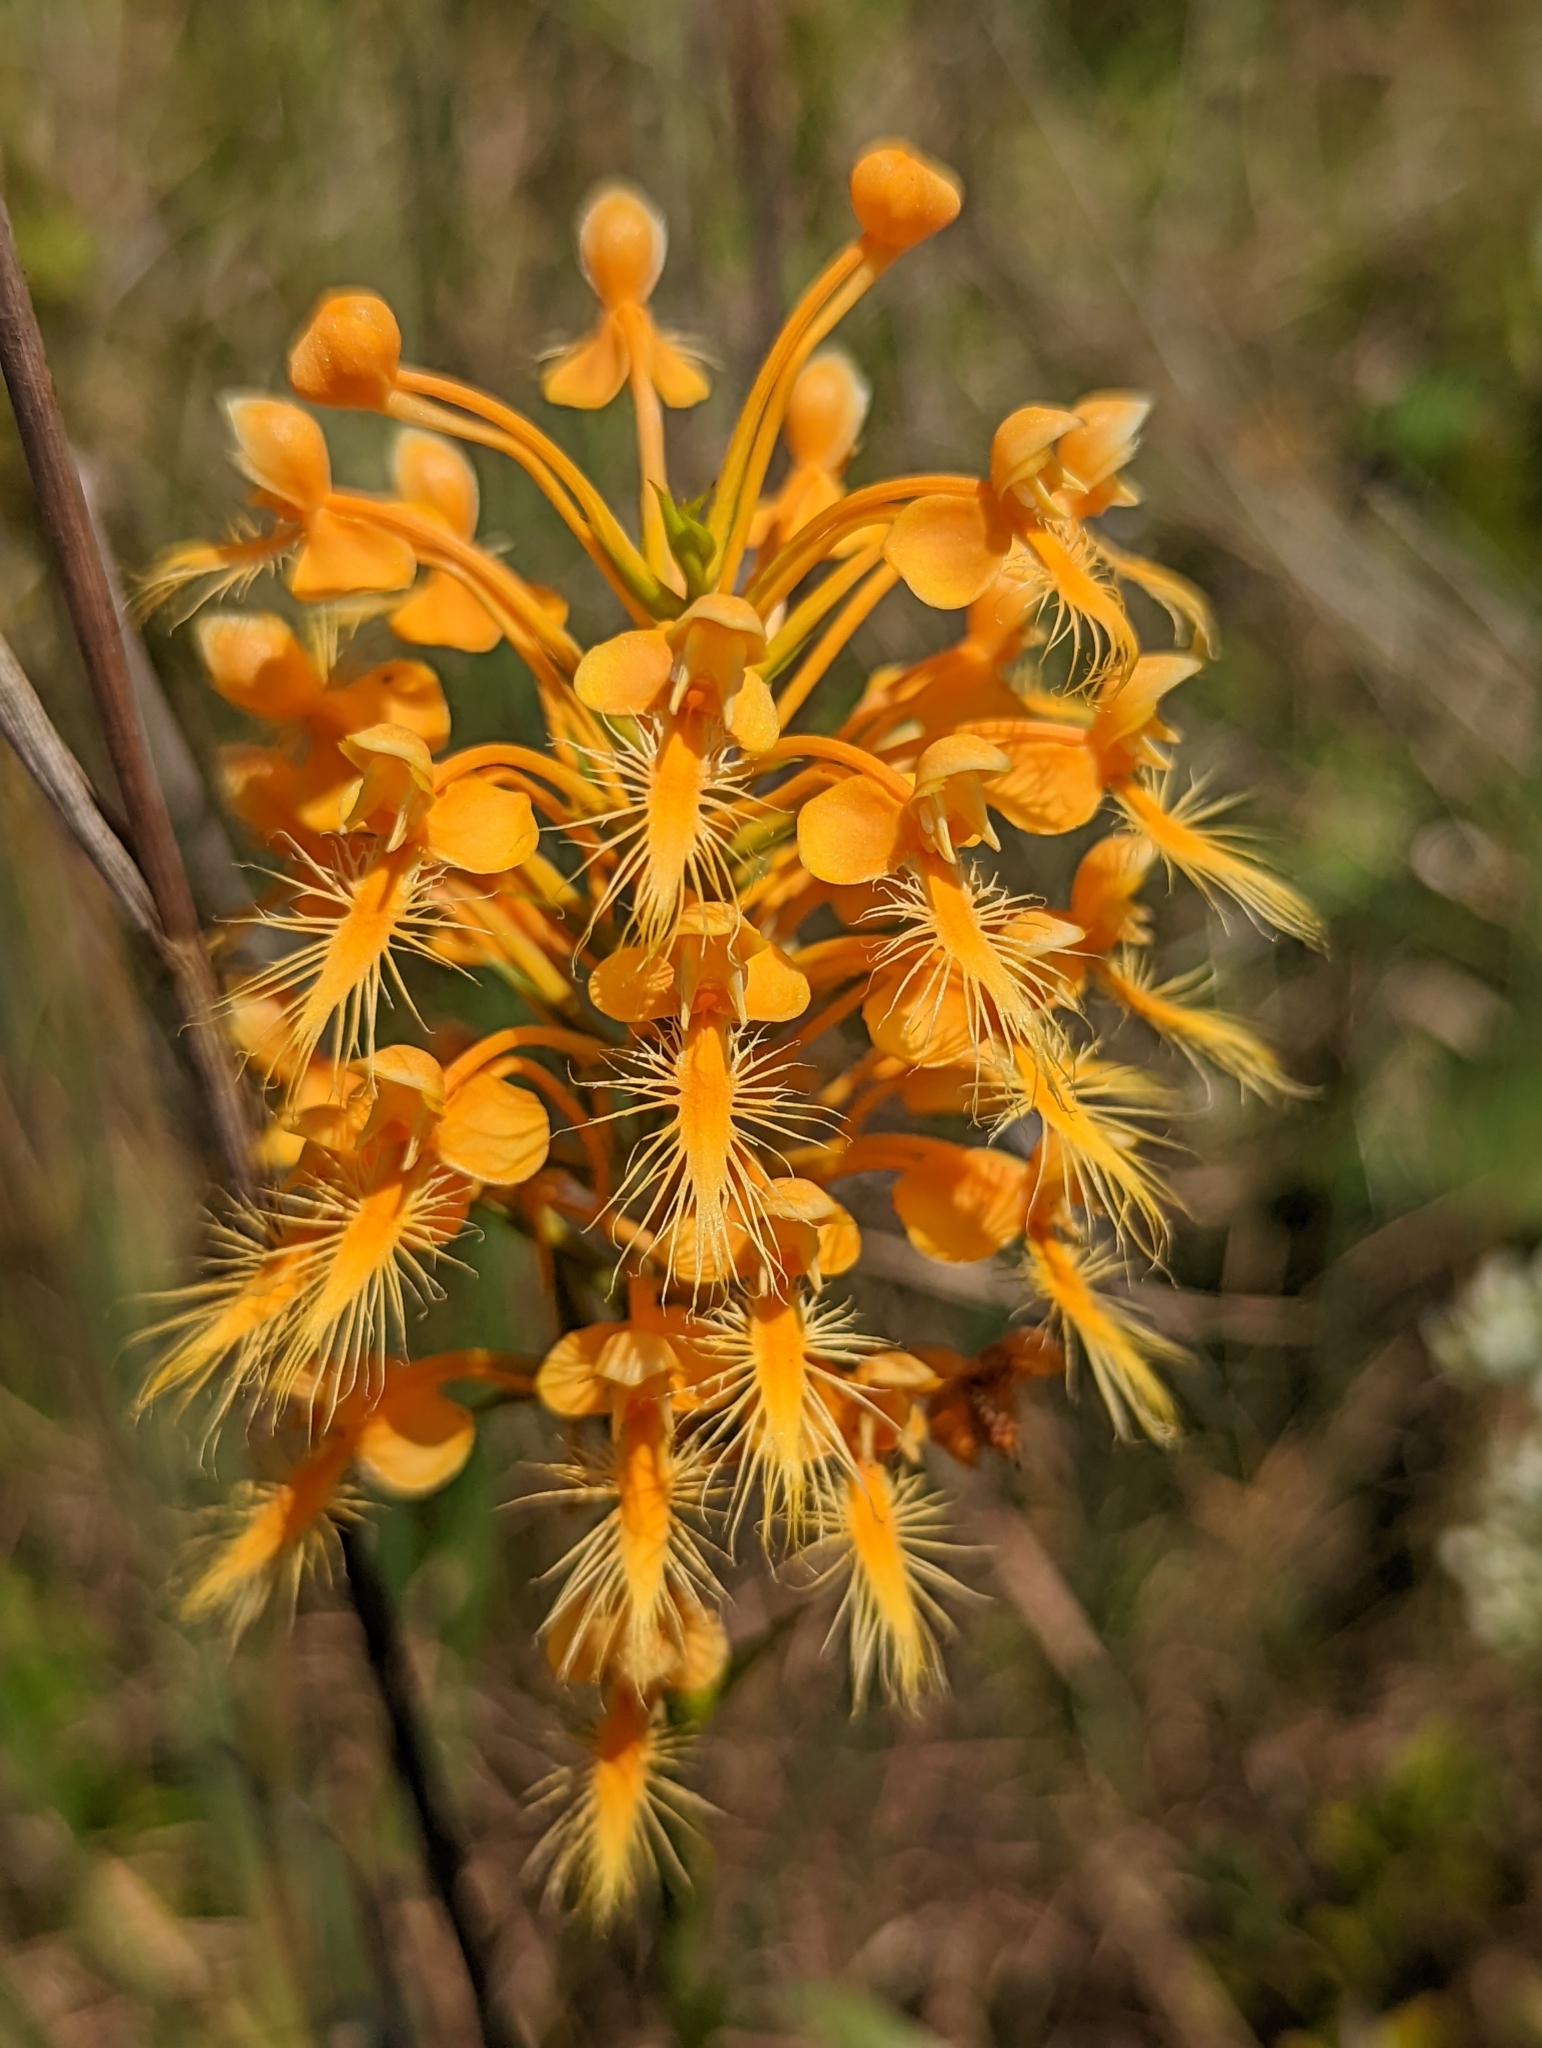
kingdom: Plantae
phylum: Tracheophyta
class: Liliopsida
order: Asparagales
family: Orchidaceae
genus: Platanthera
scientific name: Platanthera ciliaris
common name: Yellow fringed orchid
